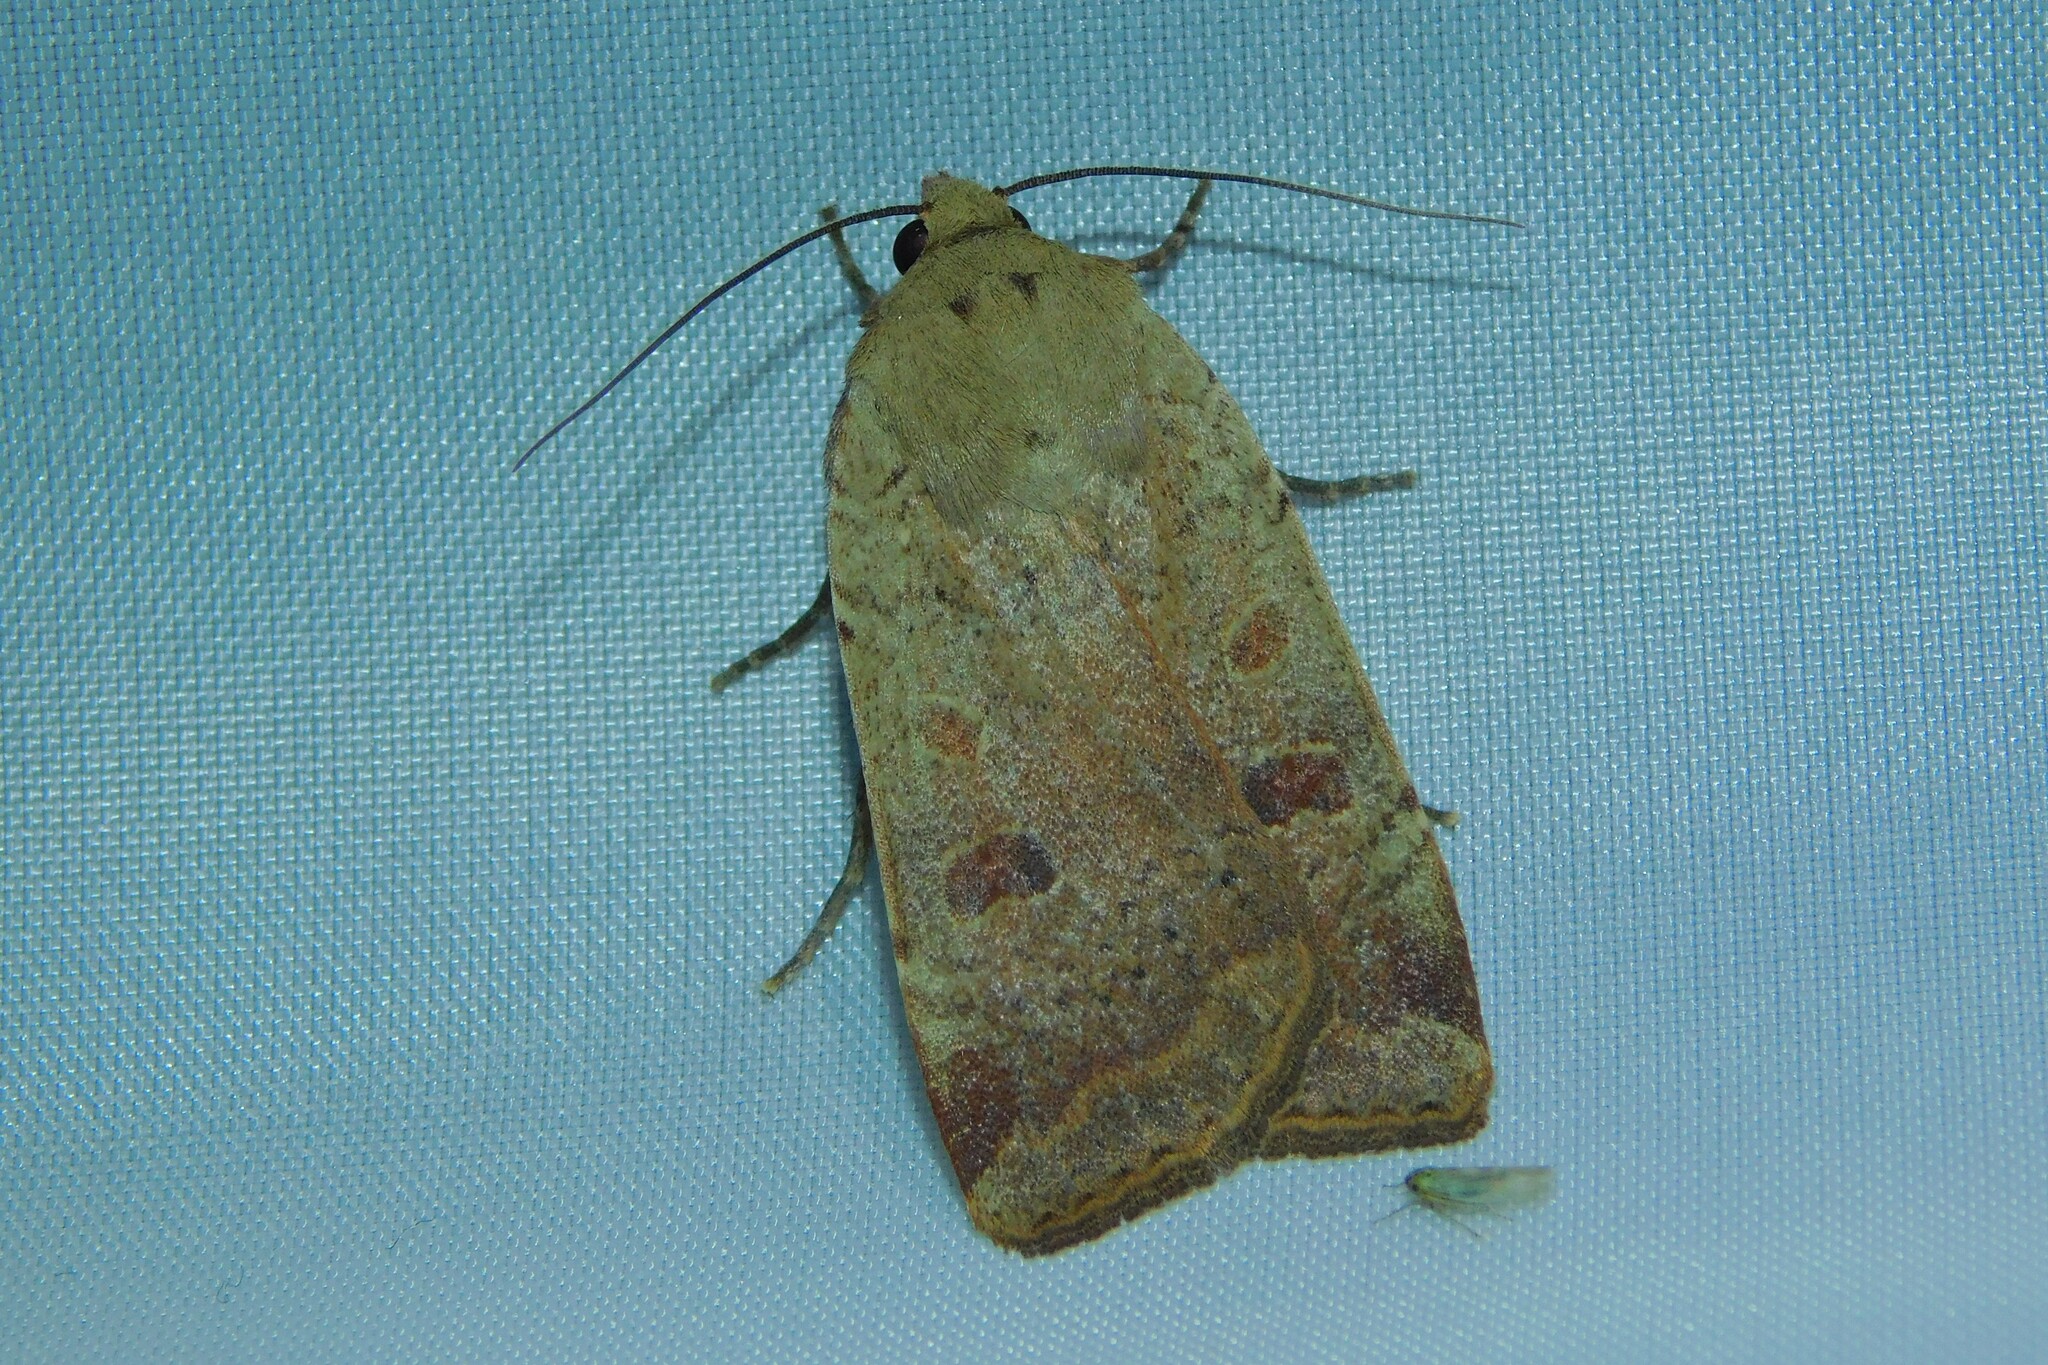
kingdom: Animalia
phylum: Arthropoda
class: Insecta
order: Lepidoptera
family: Noctuidae
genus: Noctua
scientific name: Noctua comes
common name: Lesser yellow underwing
